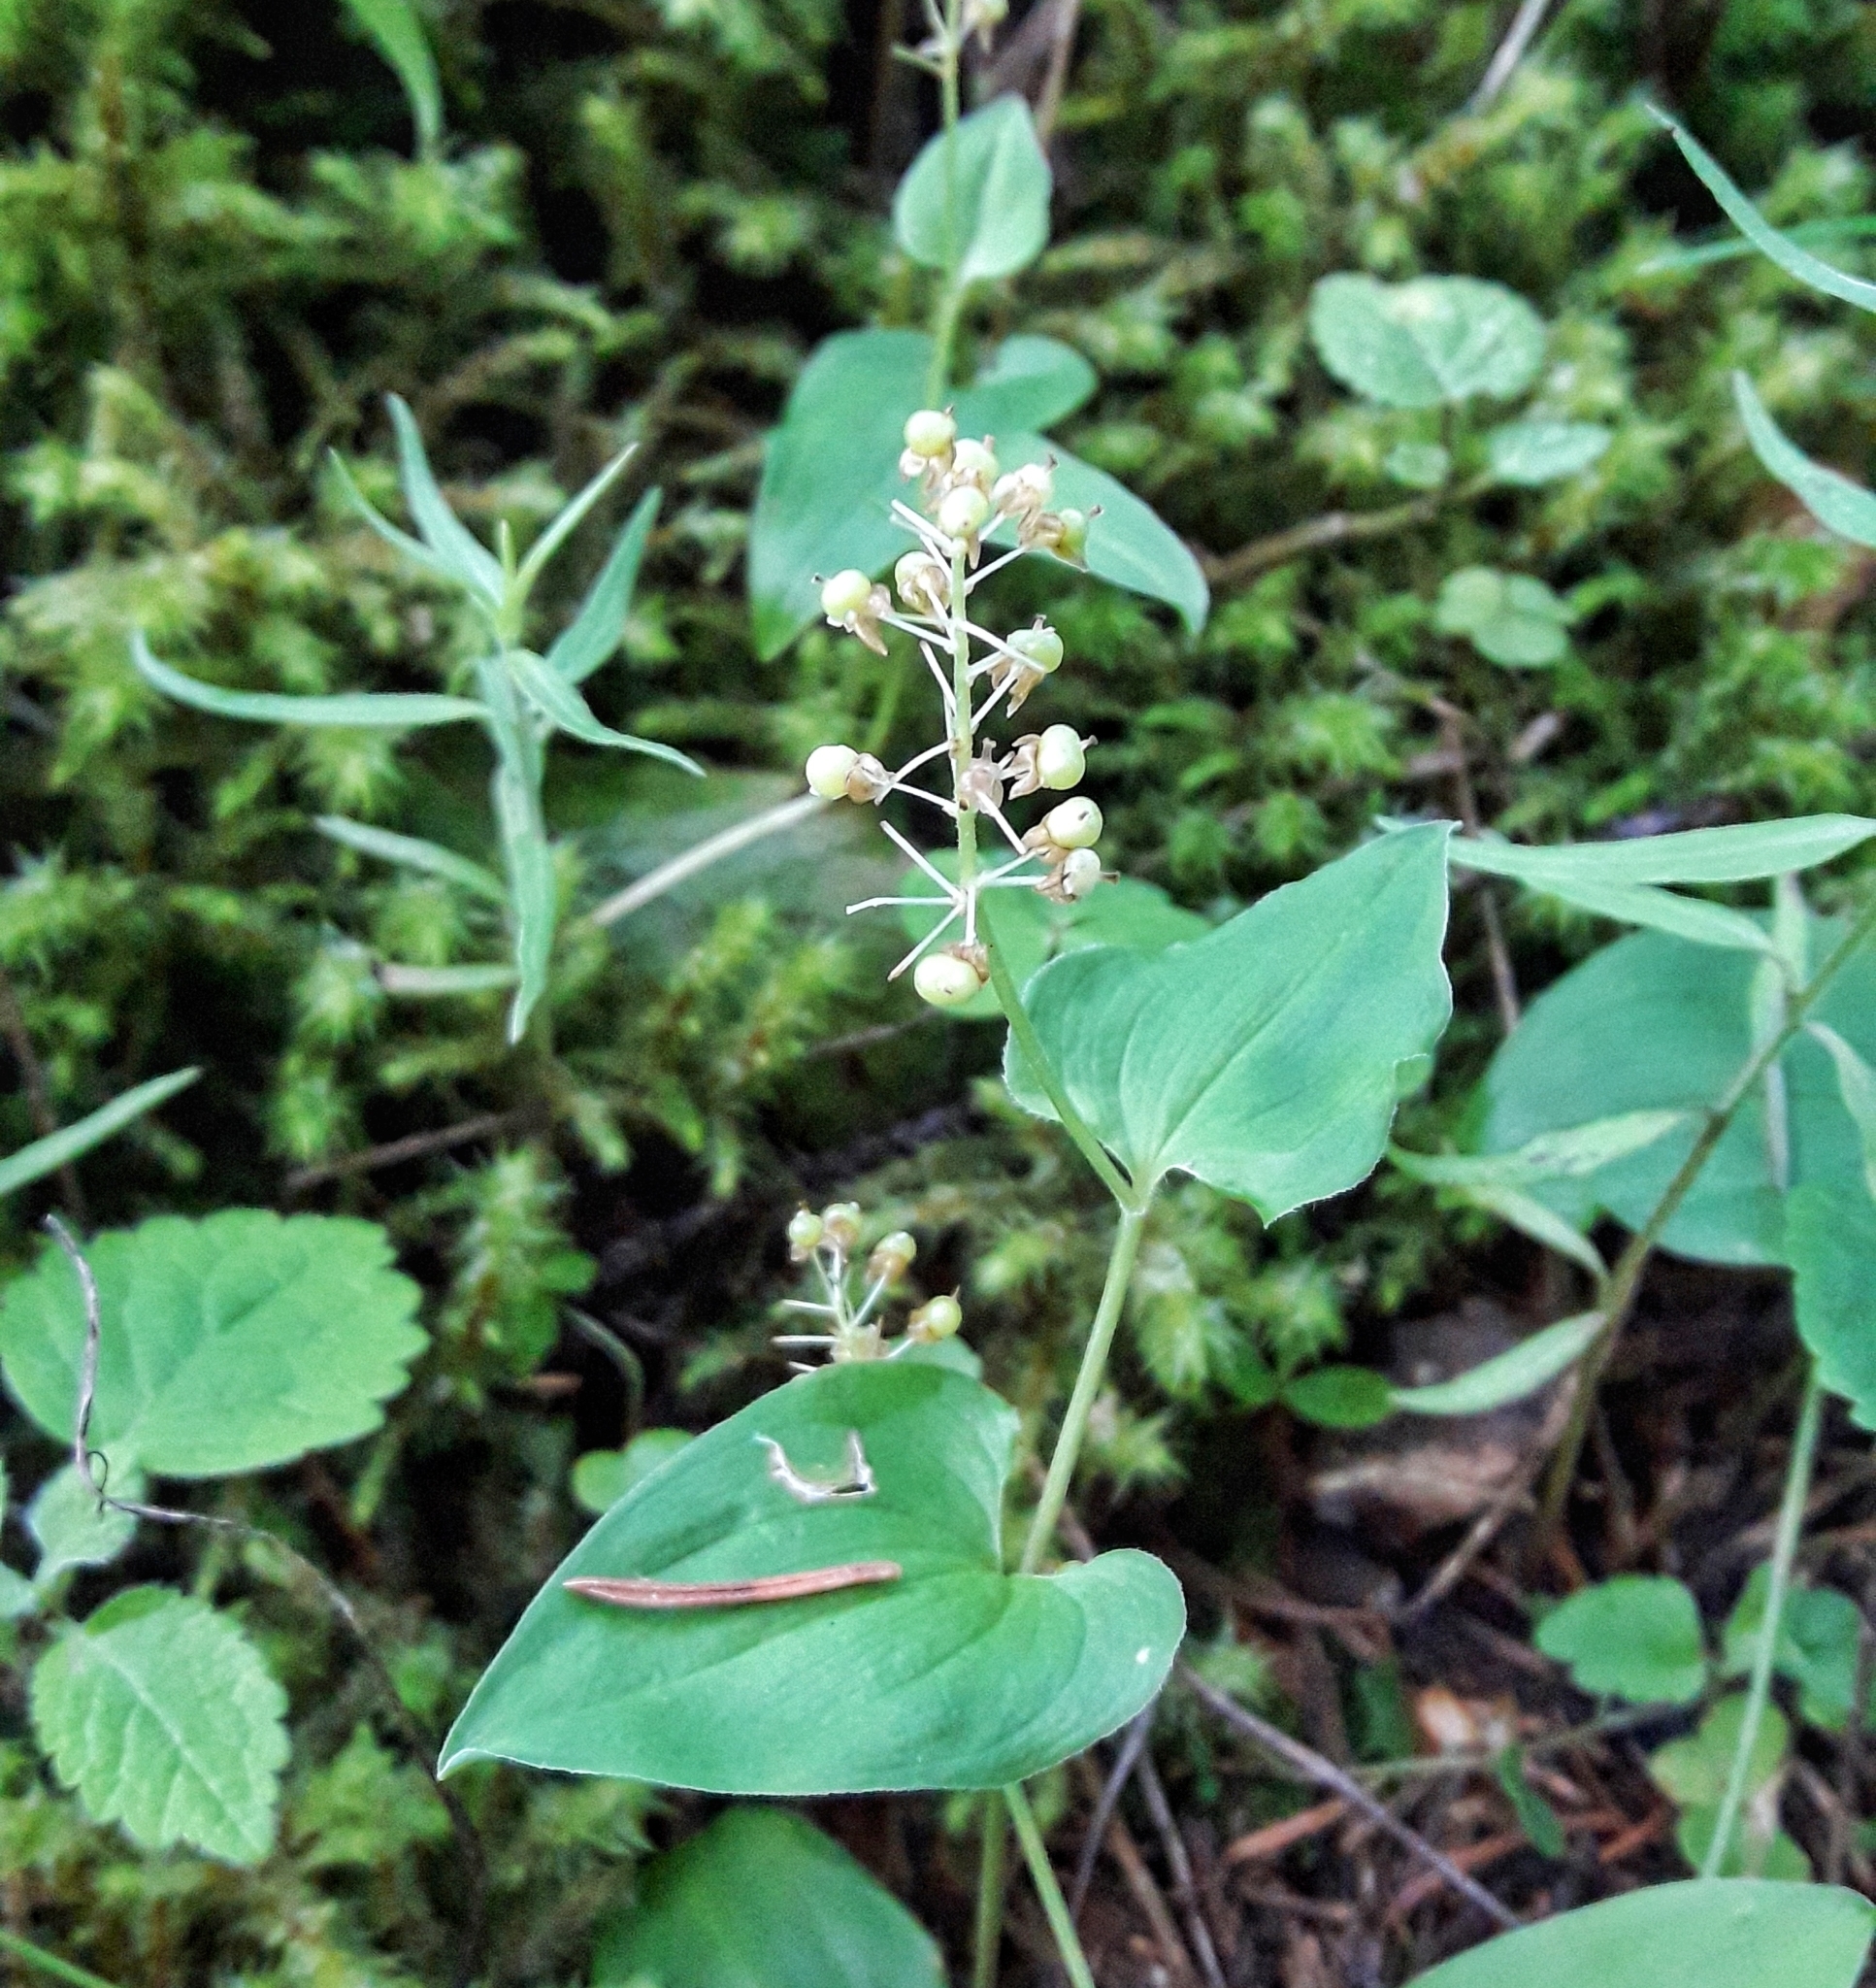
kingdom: Plantae
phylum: Tracheophyta
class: Liliopsida
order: Asparagales
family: Asparagaceae
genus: Maianthemum
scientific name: Maianthemum bifolium
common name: May lily
